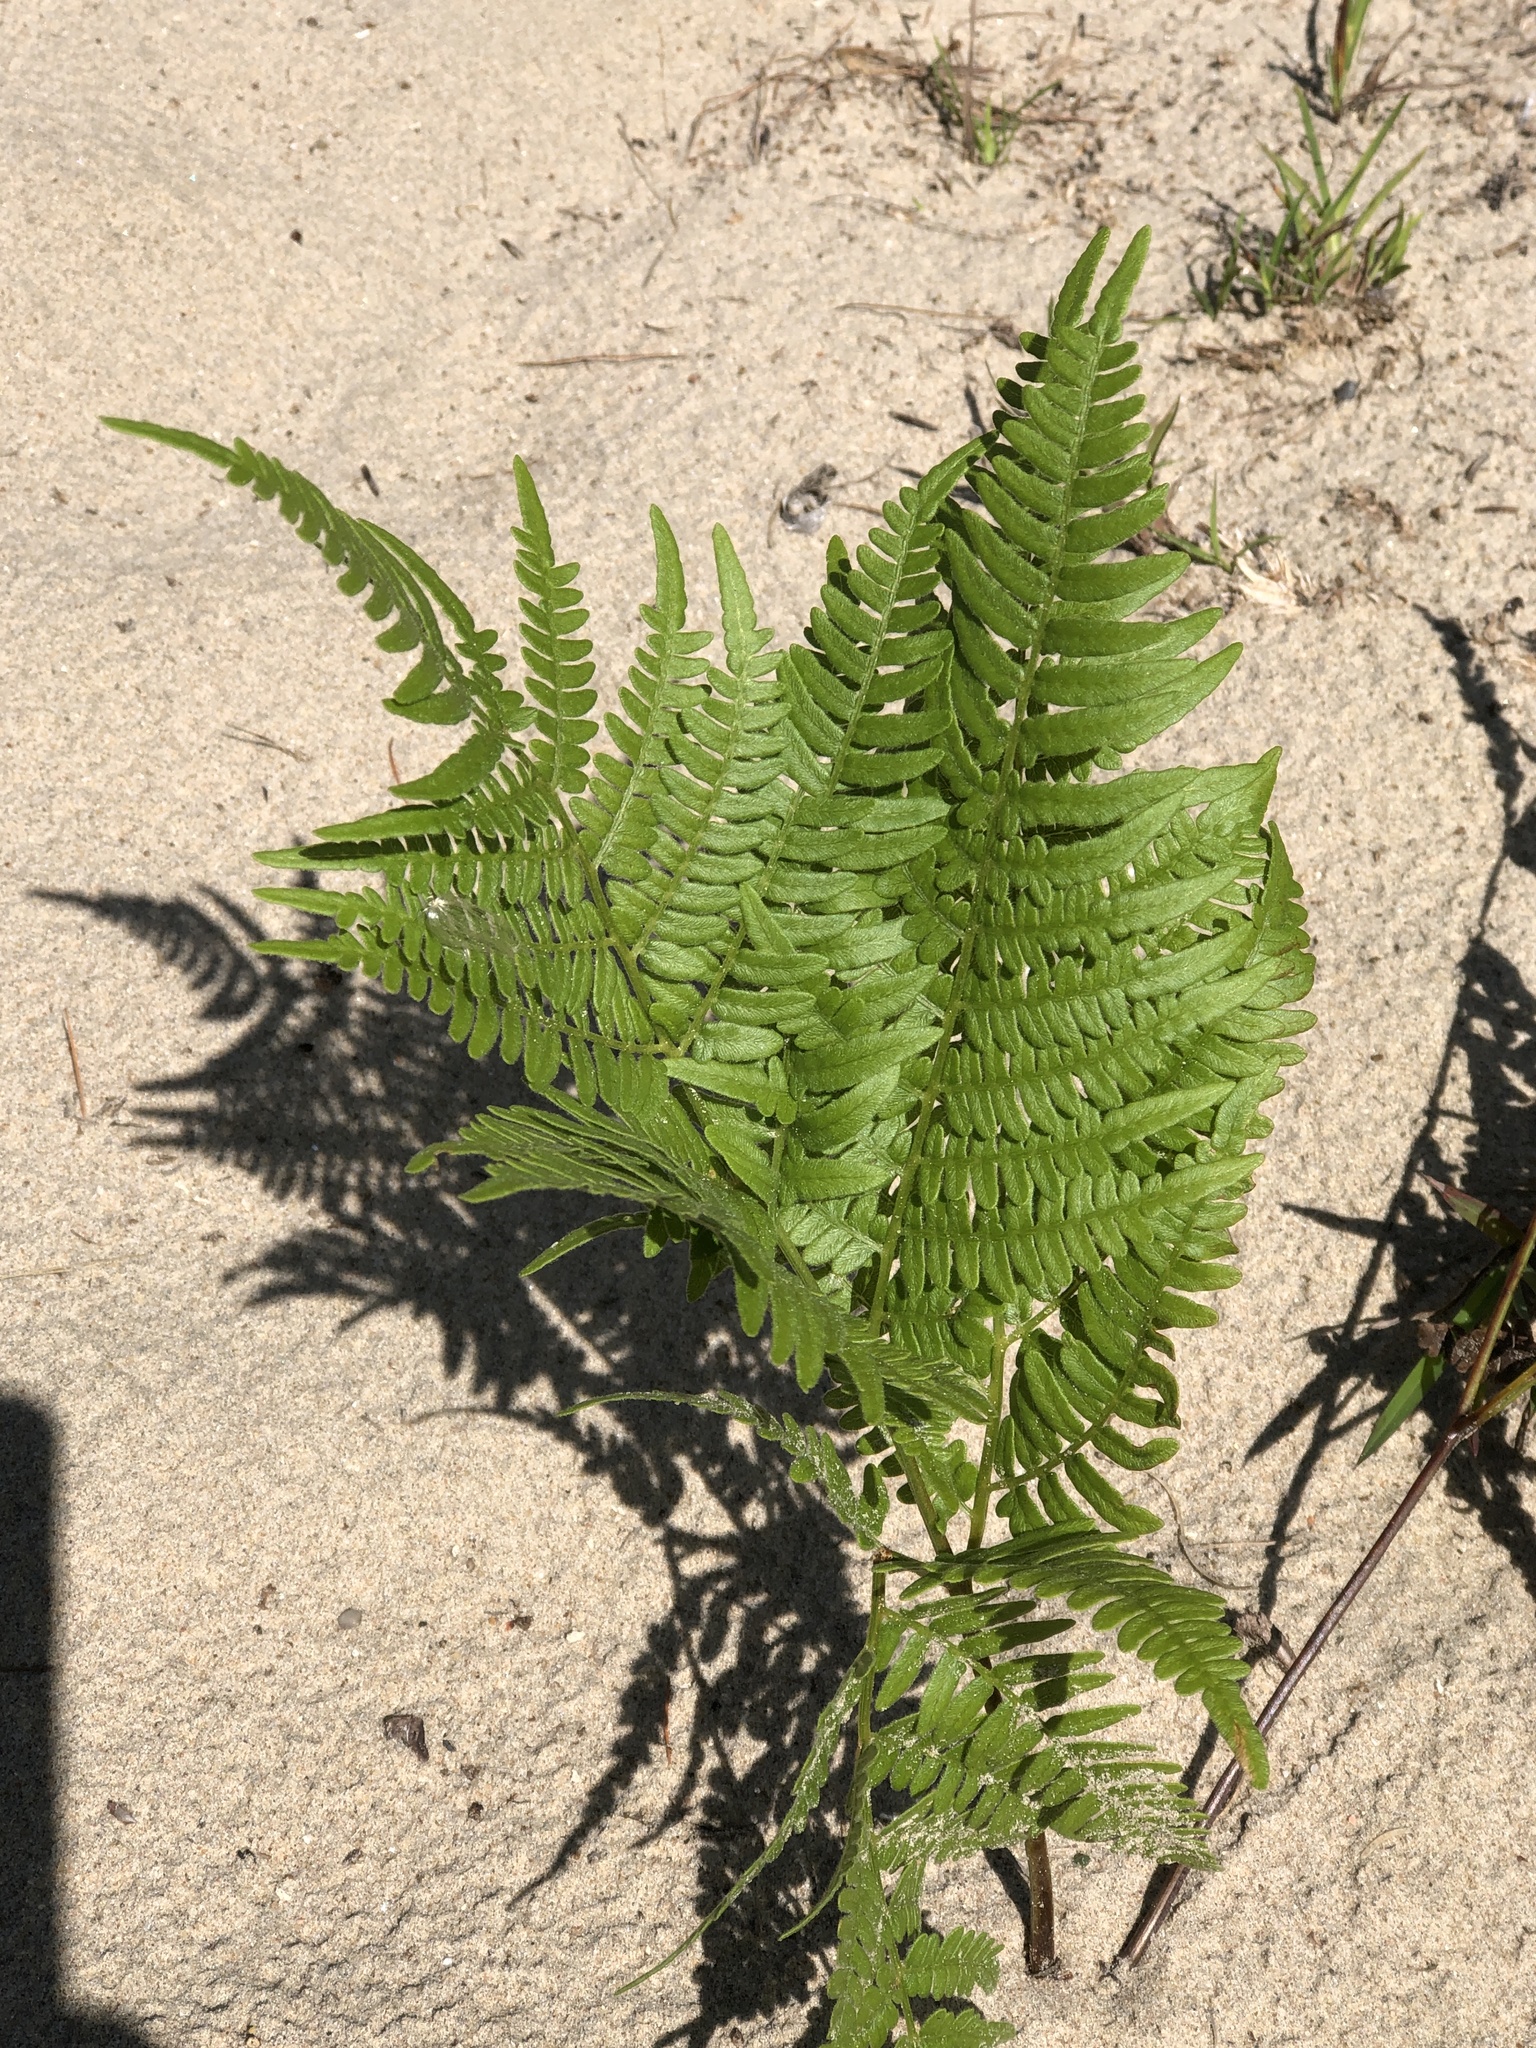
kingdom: Plantae
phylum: Tracheophyta
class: Polypodiopsida
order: Polypodiales
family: Dennstaedtiaceae
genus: Pteridium
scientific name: Pteridium aquilinum
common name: Bracken
